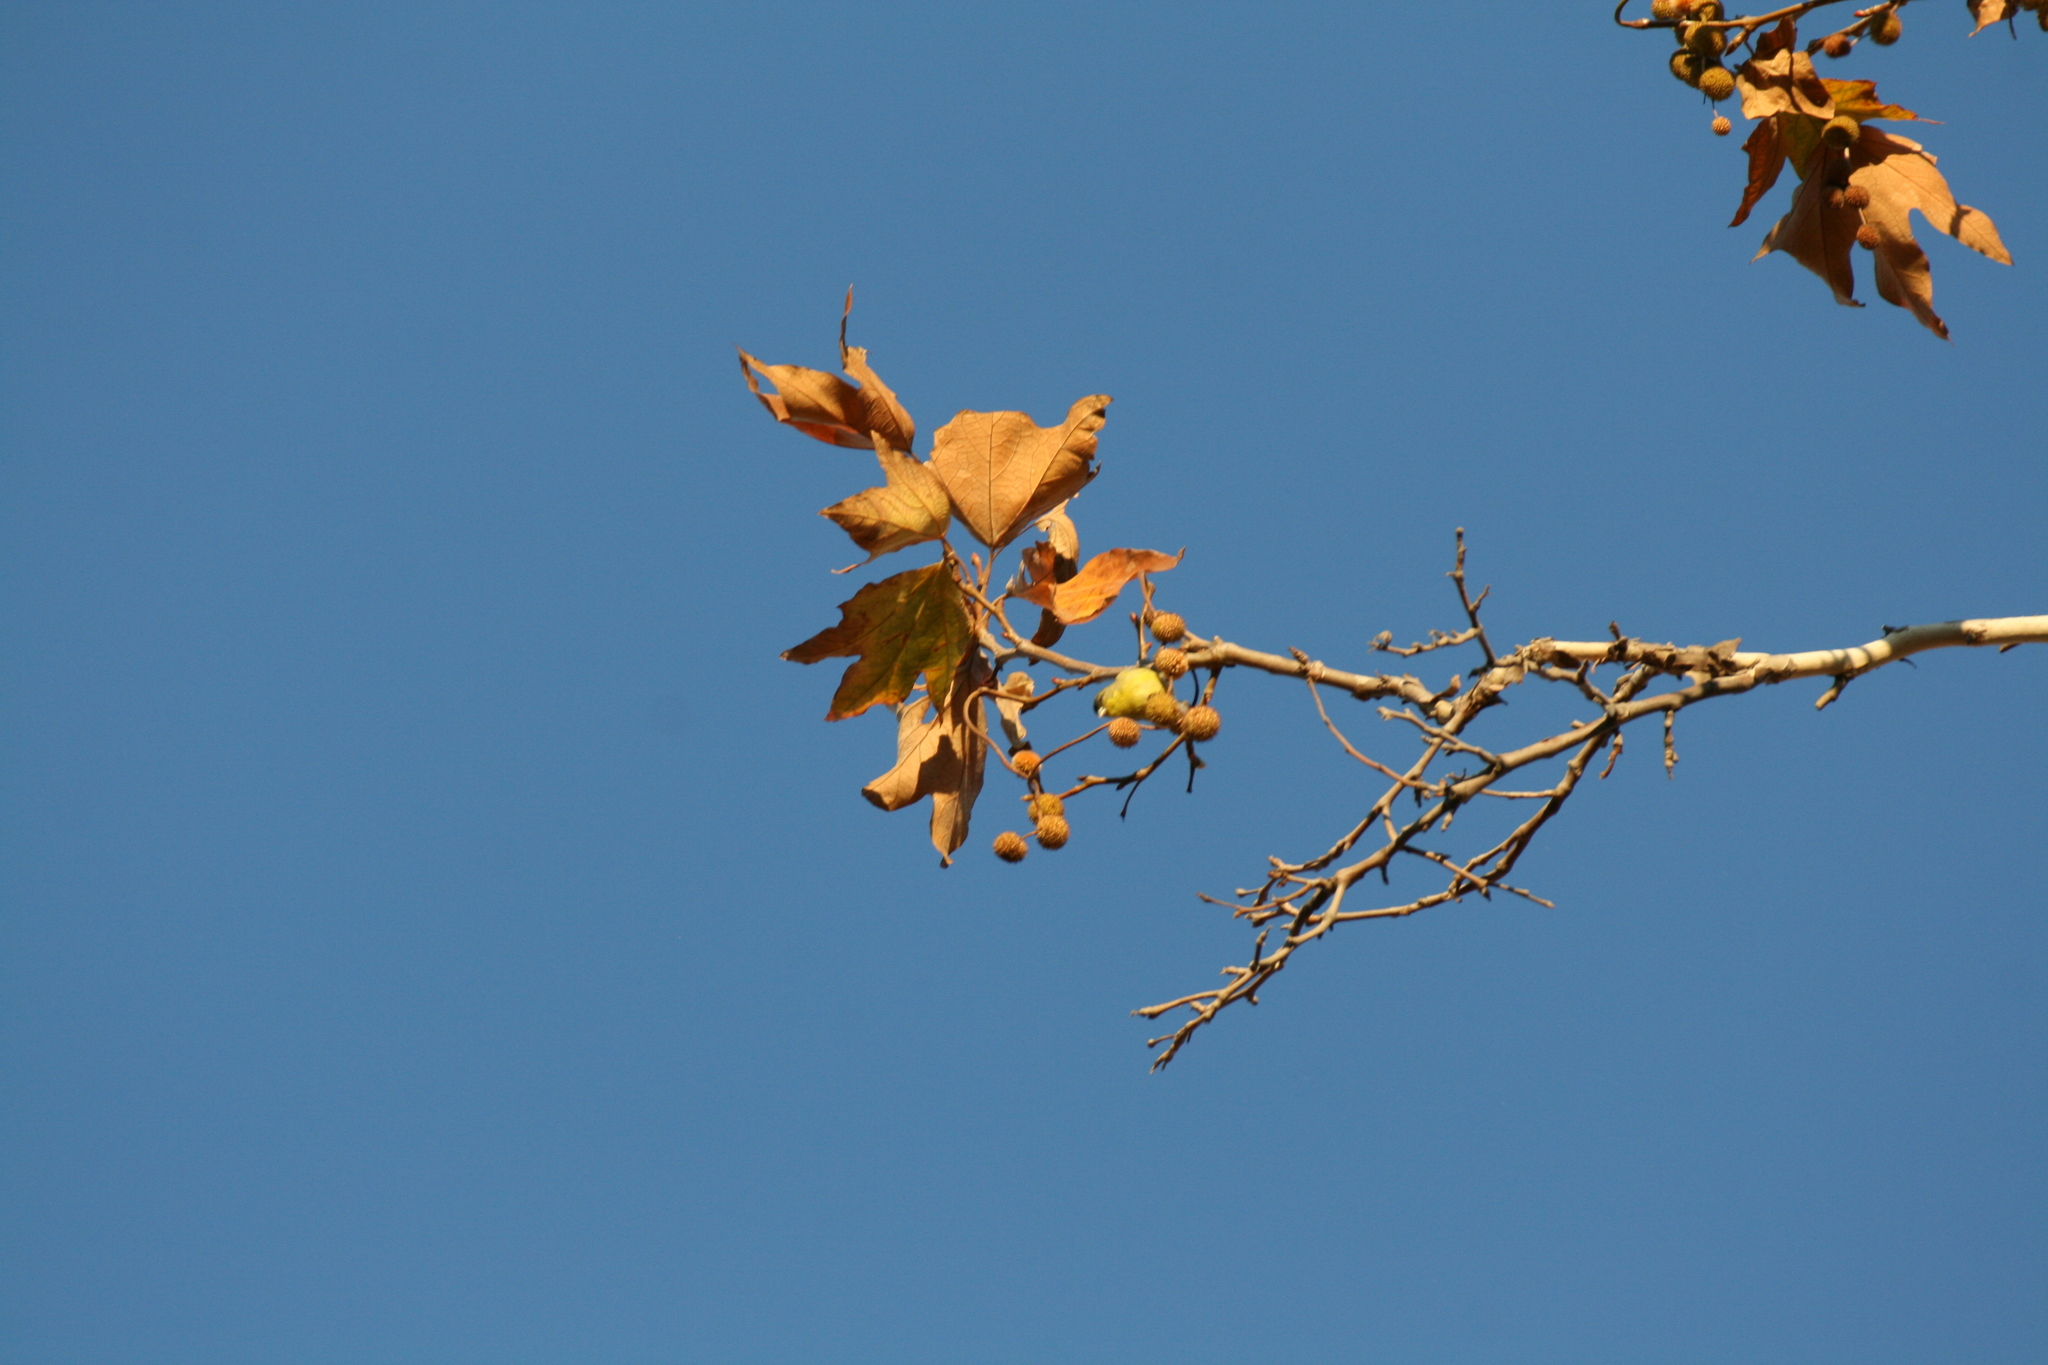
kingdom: Animalia
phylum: Chordata
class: Aves
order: Passeriformes
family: Fringillidae
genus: Spinus
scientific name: Spinus psaltria
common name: Lesser goldfinch
